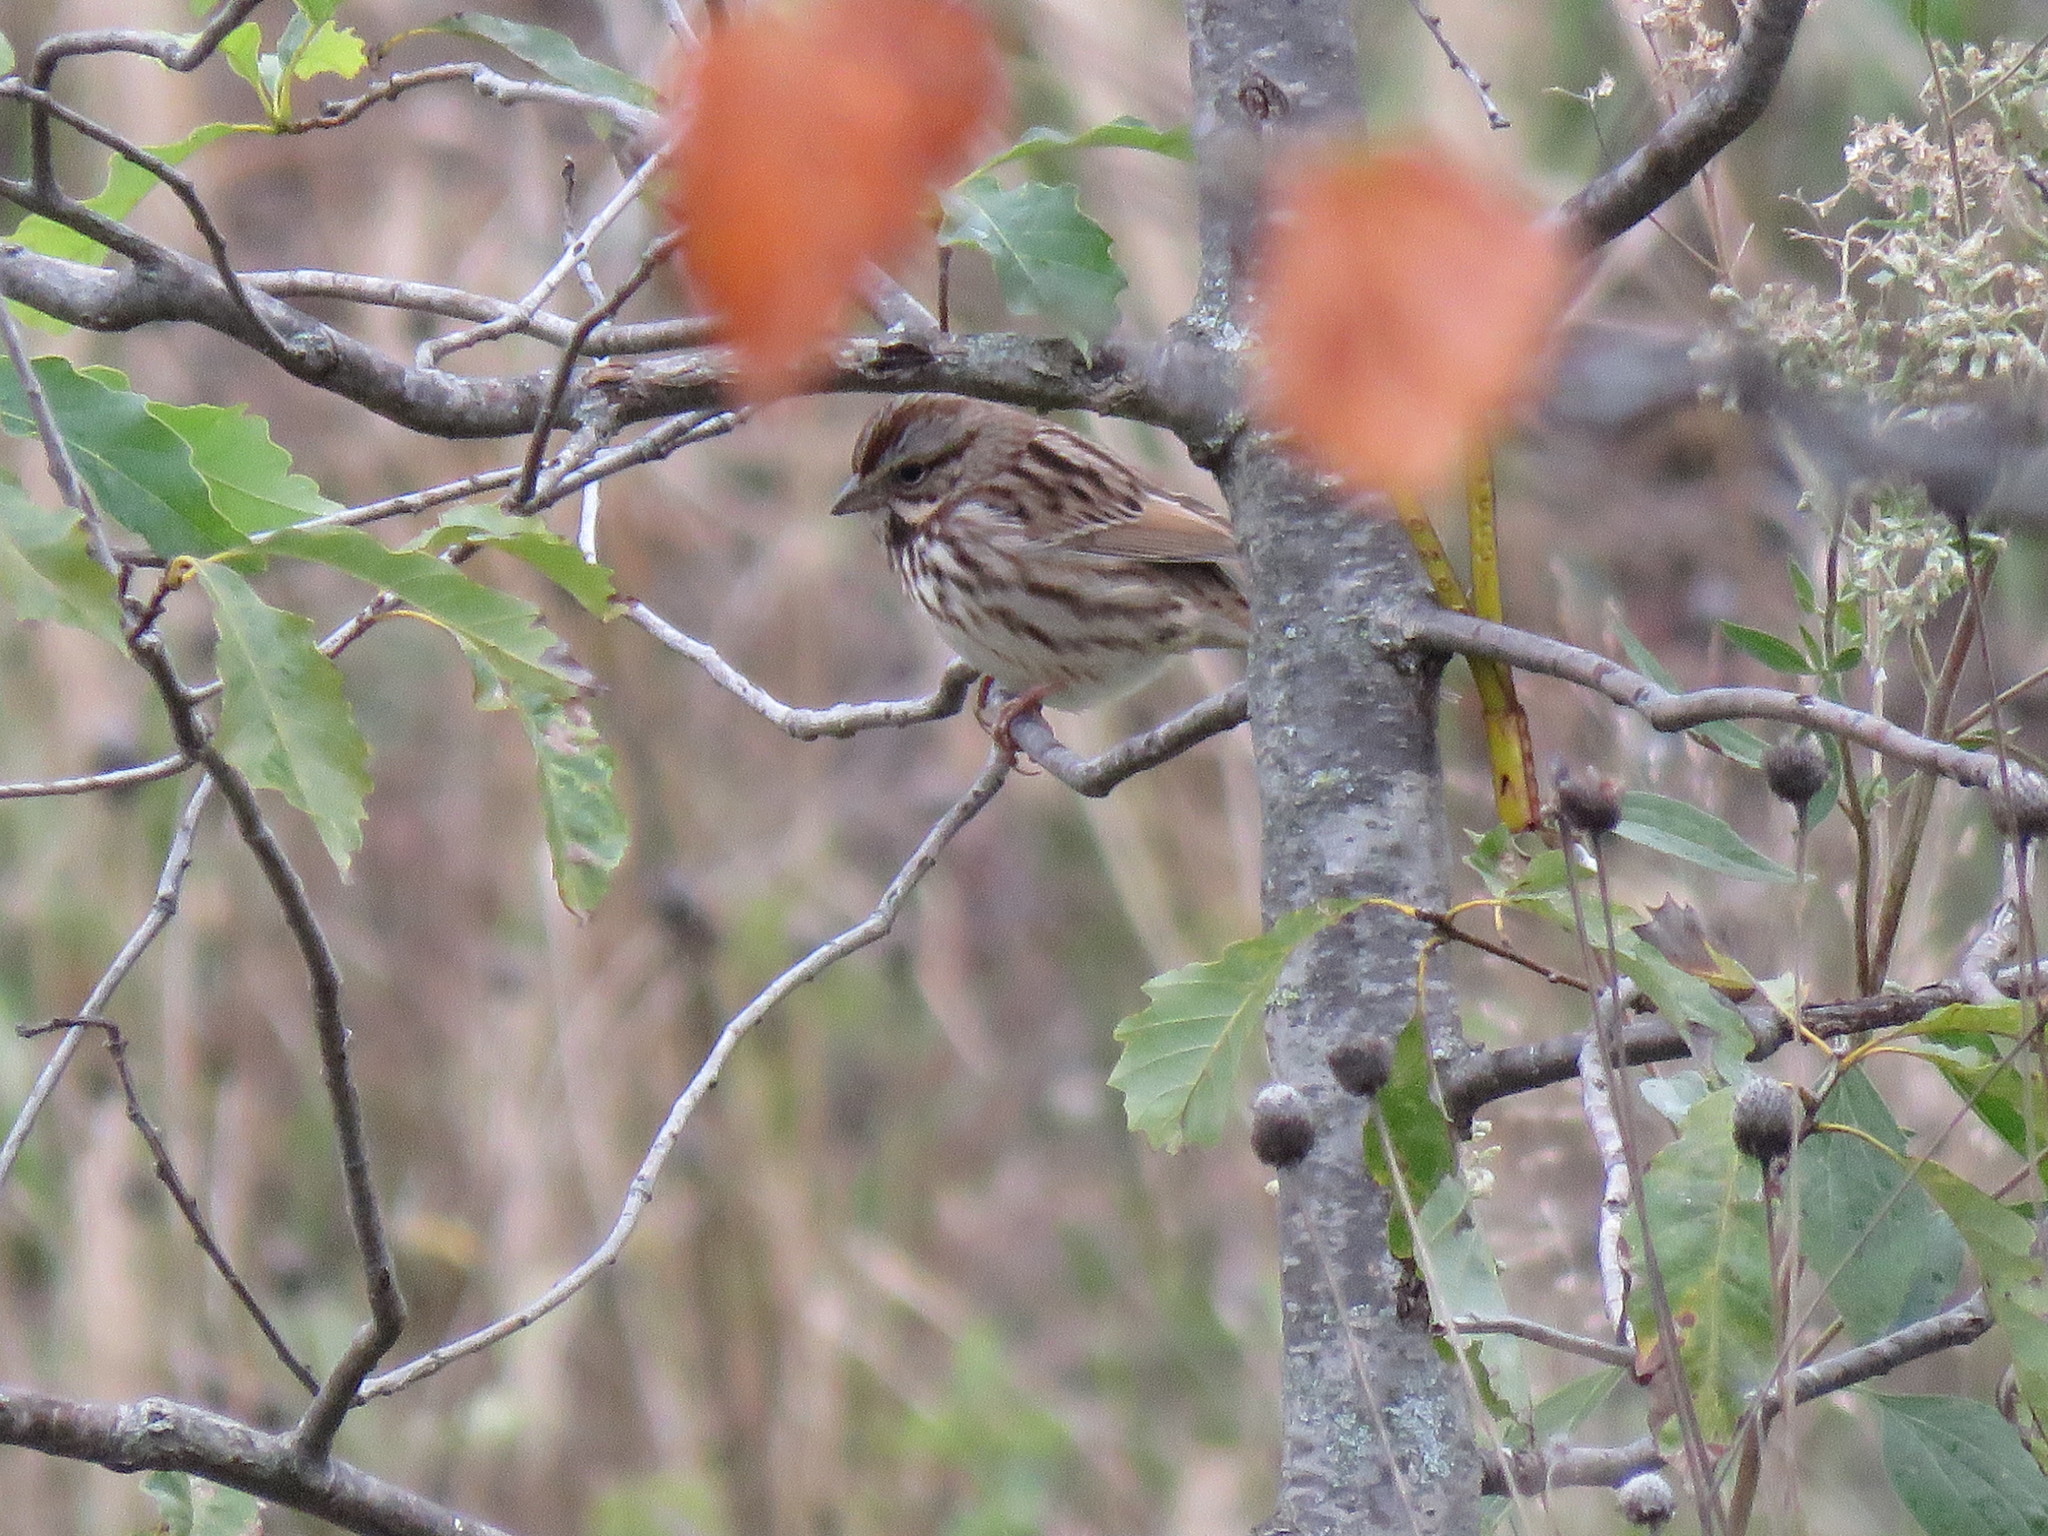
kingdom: Animalia
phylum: Chordata
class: Aves
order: Passeriformes
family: Passerellidae
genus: Melospiza
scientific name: Melospiza melodia
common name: Song sparrow
